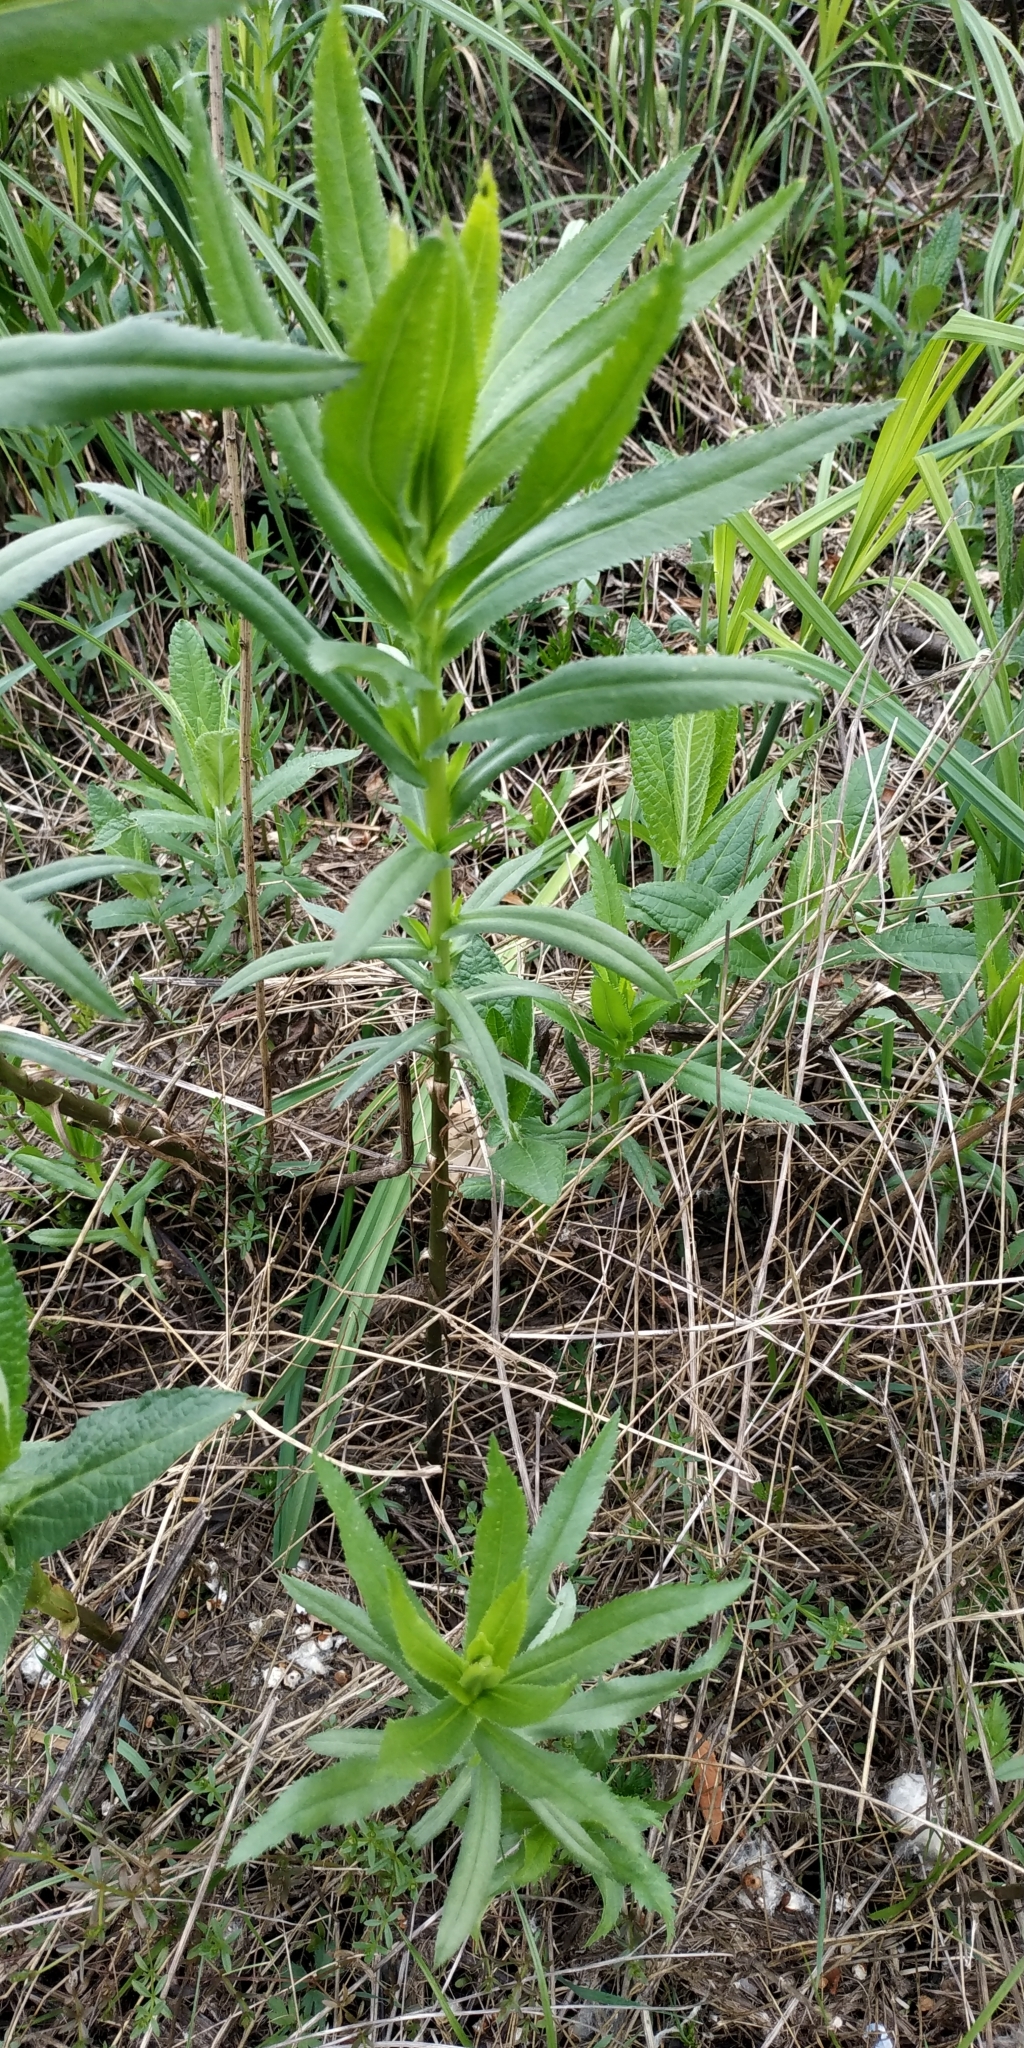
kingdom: Plantae
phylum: Tracheophyta
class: Magnoliopsida
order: Asterales
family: Asteraceae
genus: Achillea
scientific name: Achillea salicifolia
